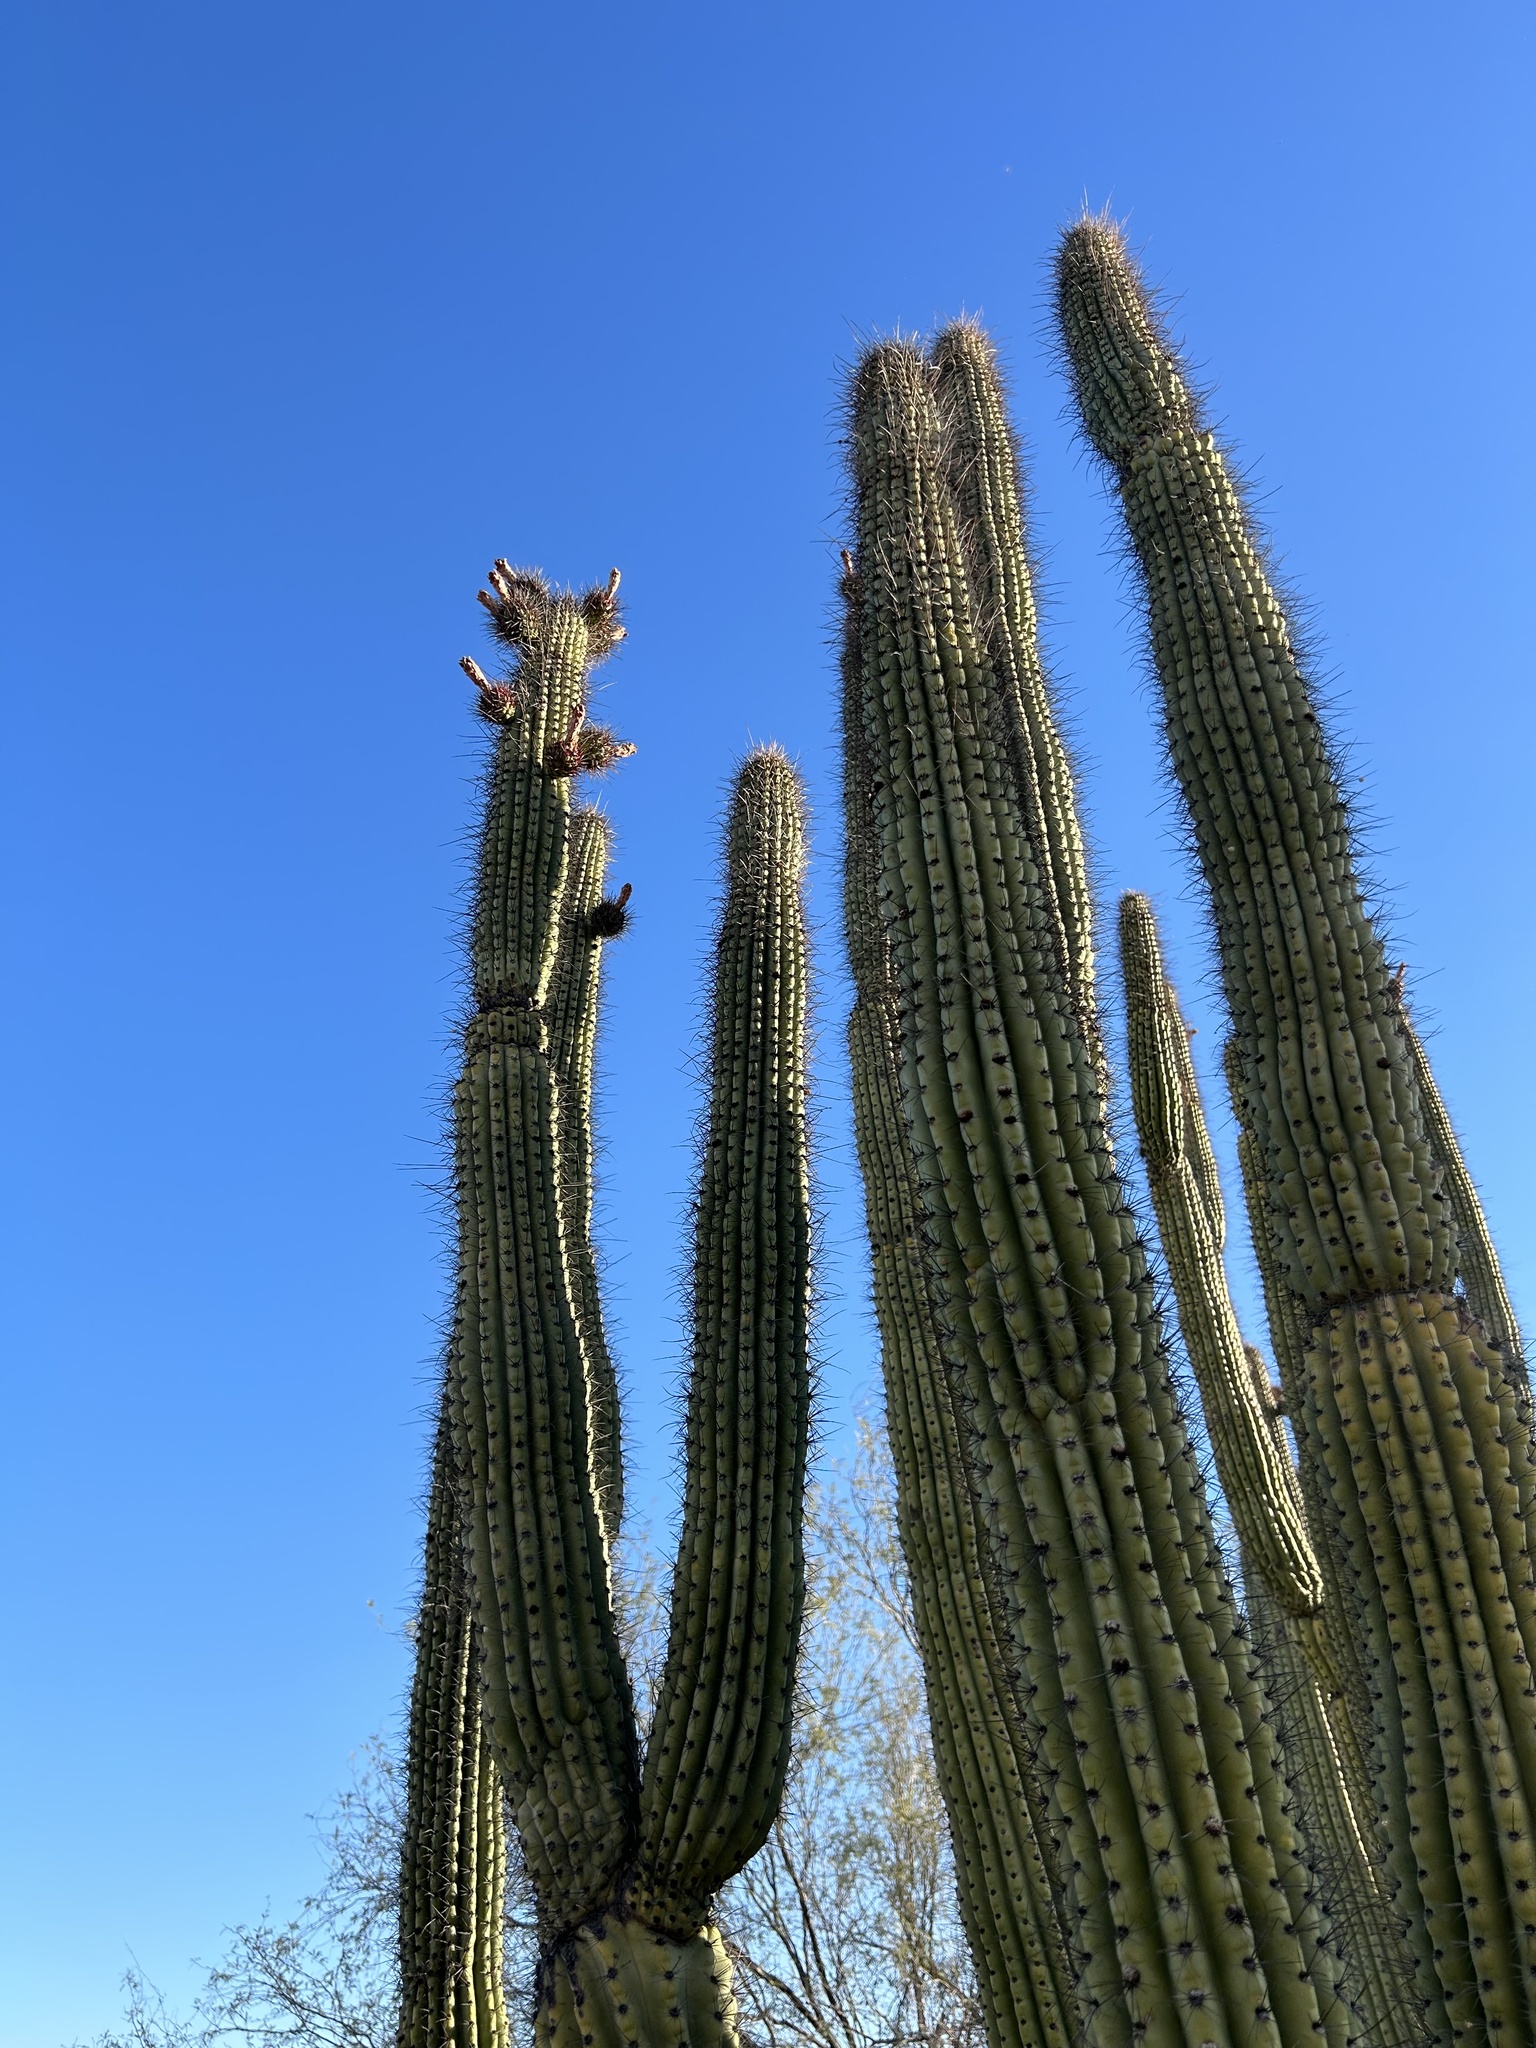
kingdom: Plantae
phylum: Tracheophyta
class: Magnoliopsida
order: Caryophyllales
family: Cactaceae
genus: Stenocereus
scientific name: Stenocereus thurberi
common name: Organ pipe cactus
